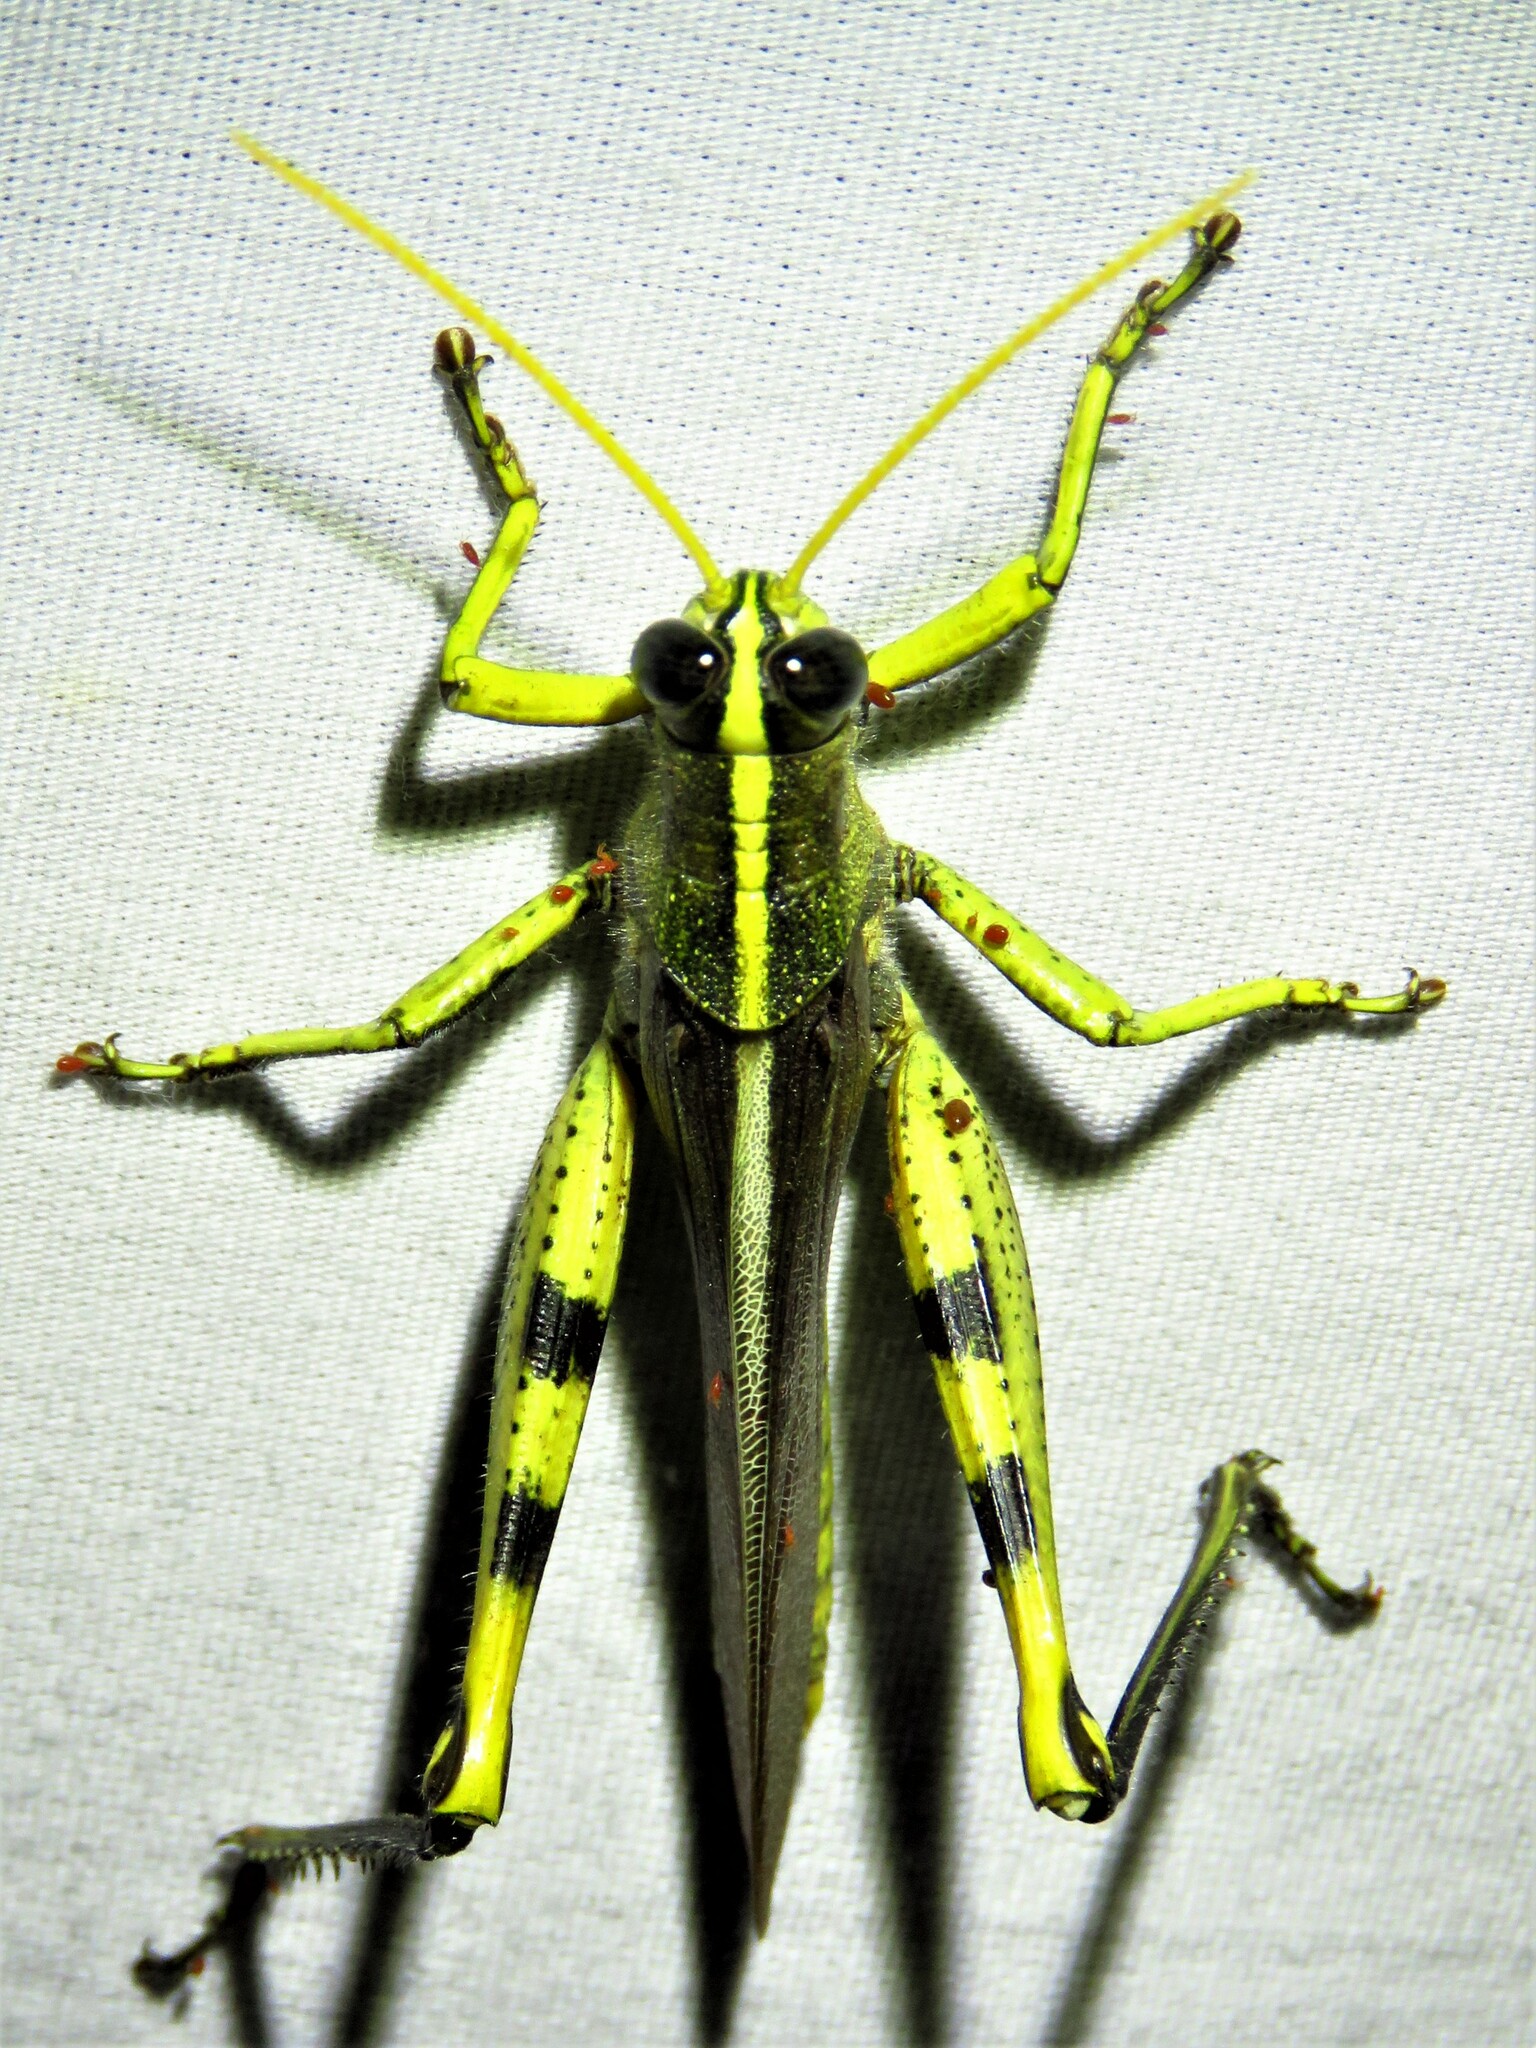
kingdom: Animalia
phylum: Arthropoda
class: Insecta
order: Orthoptera
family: Acrididae
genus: Schistocerca
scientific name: Schistocerca obscura
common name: Obscure bird grasshopper
